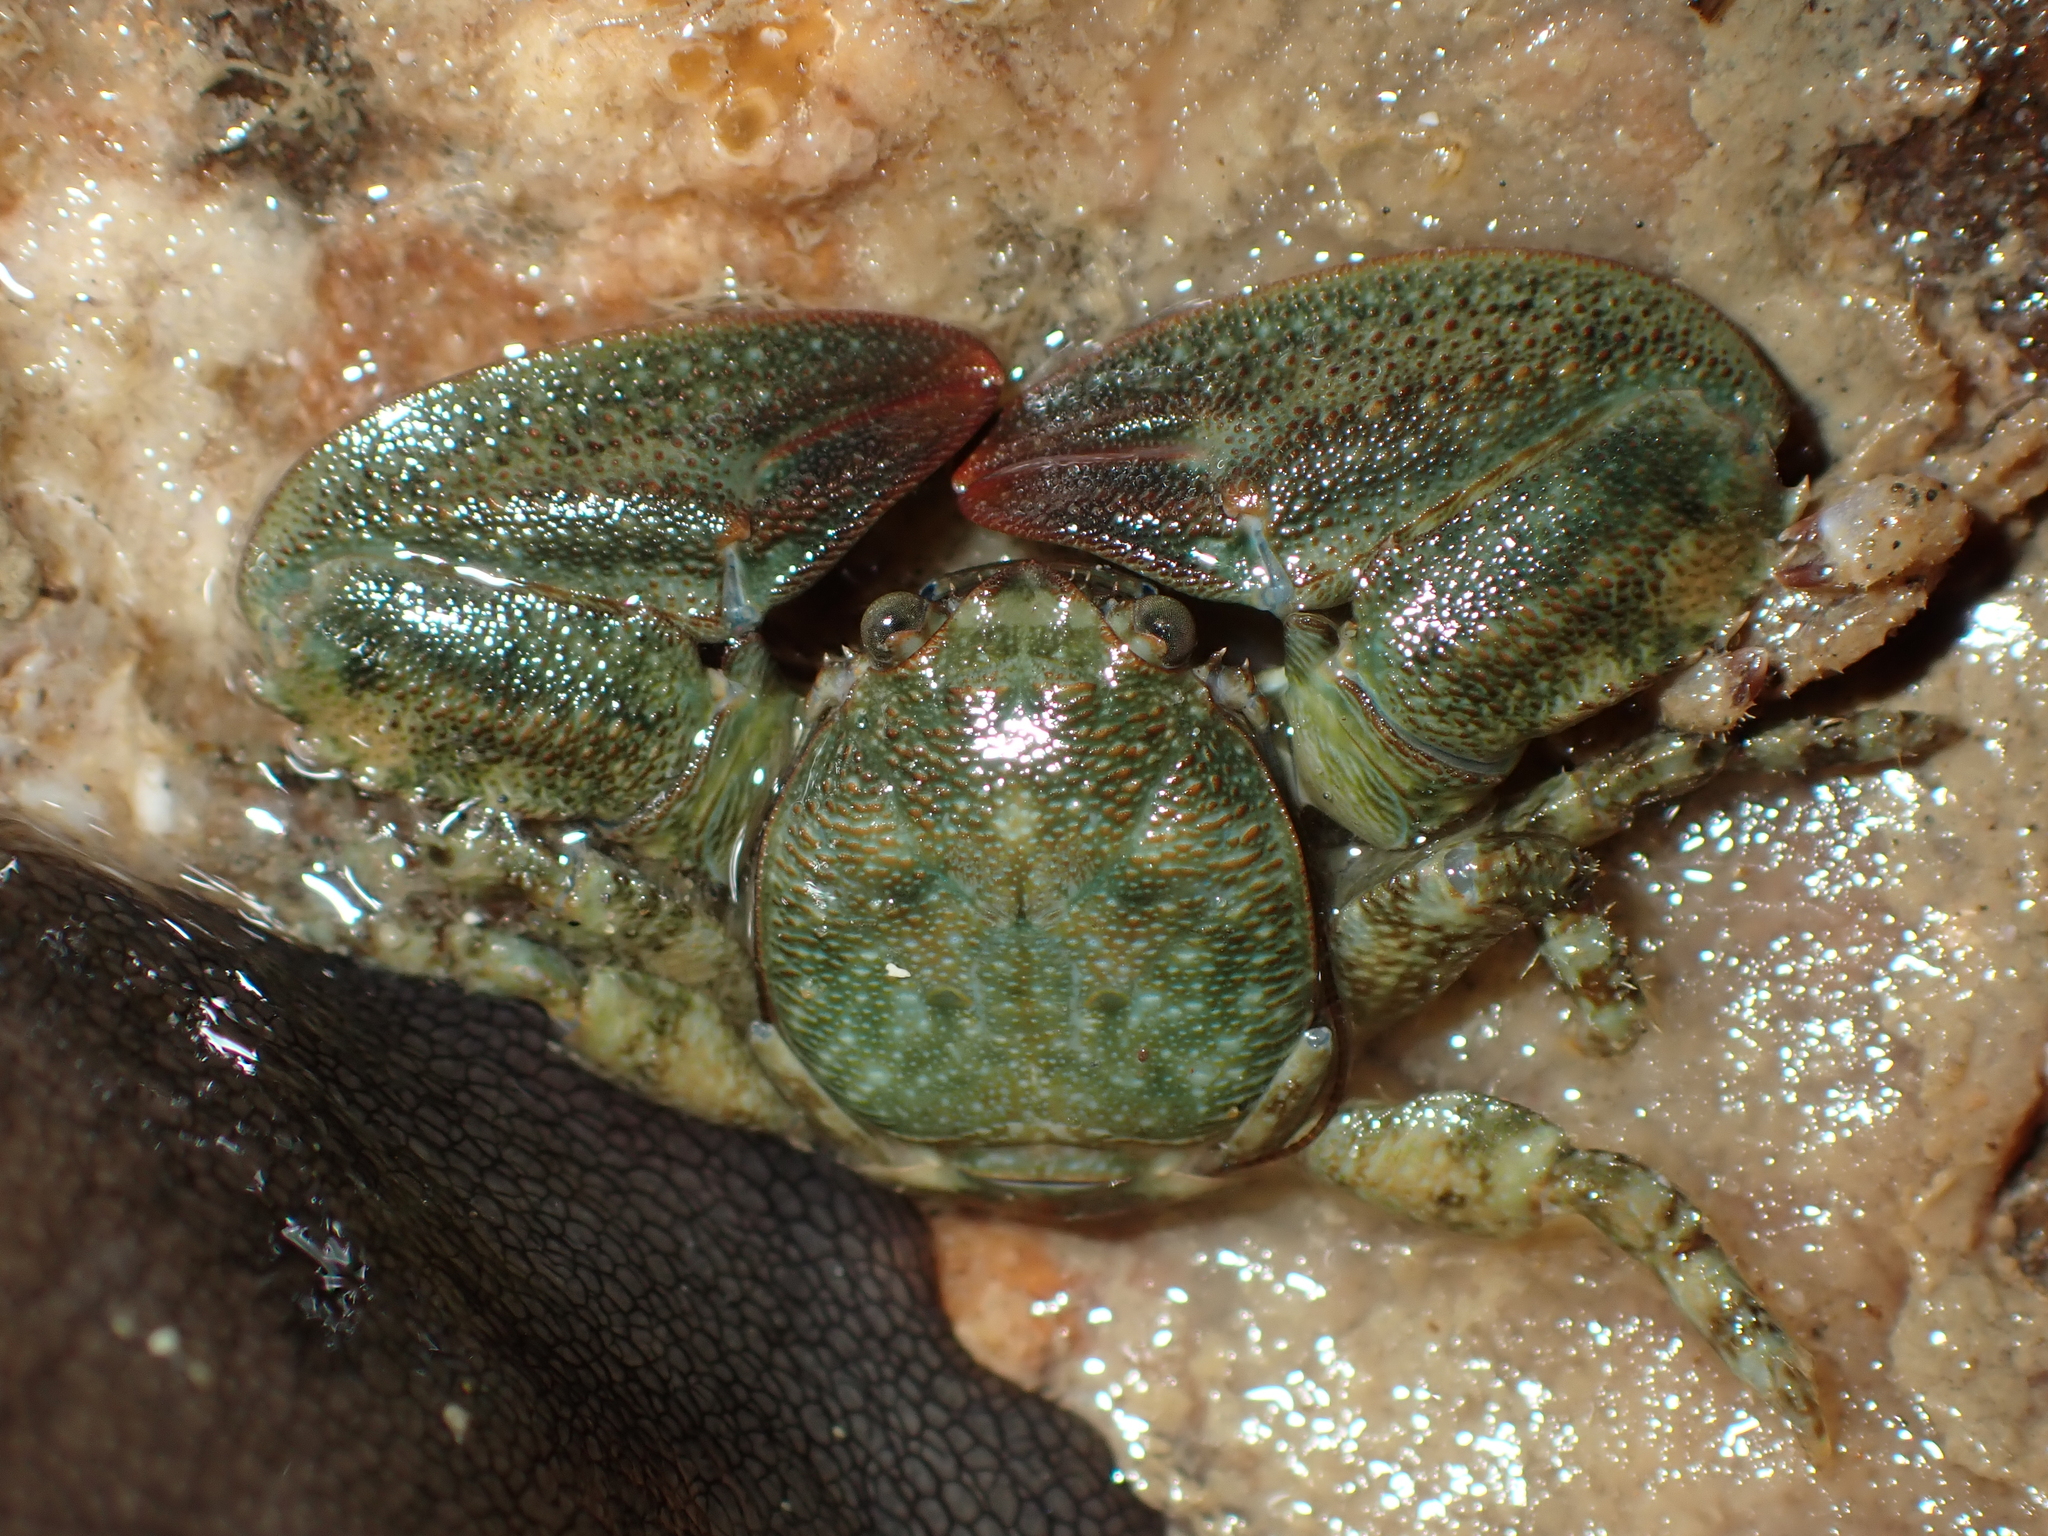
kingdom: Animalia
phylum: Arthropoda
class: Malacostraca
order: Decapoda
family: Porcellanidae
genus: Petrolisthes
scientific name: Petrolisthes elongatus
